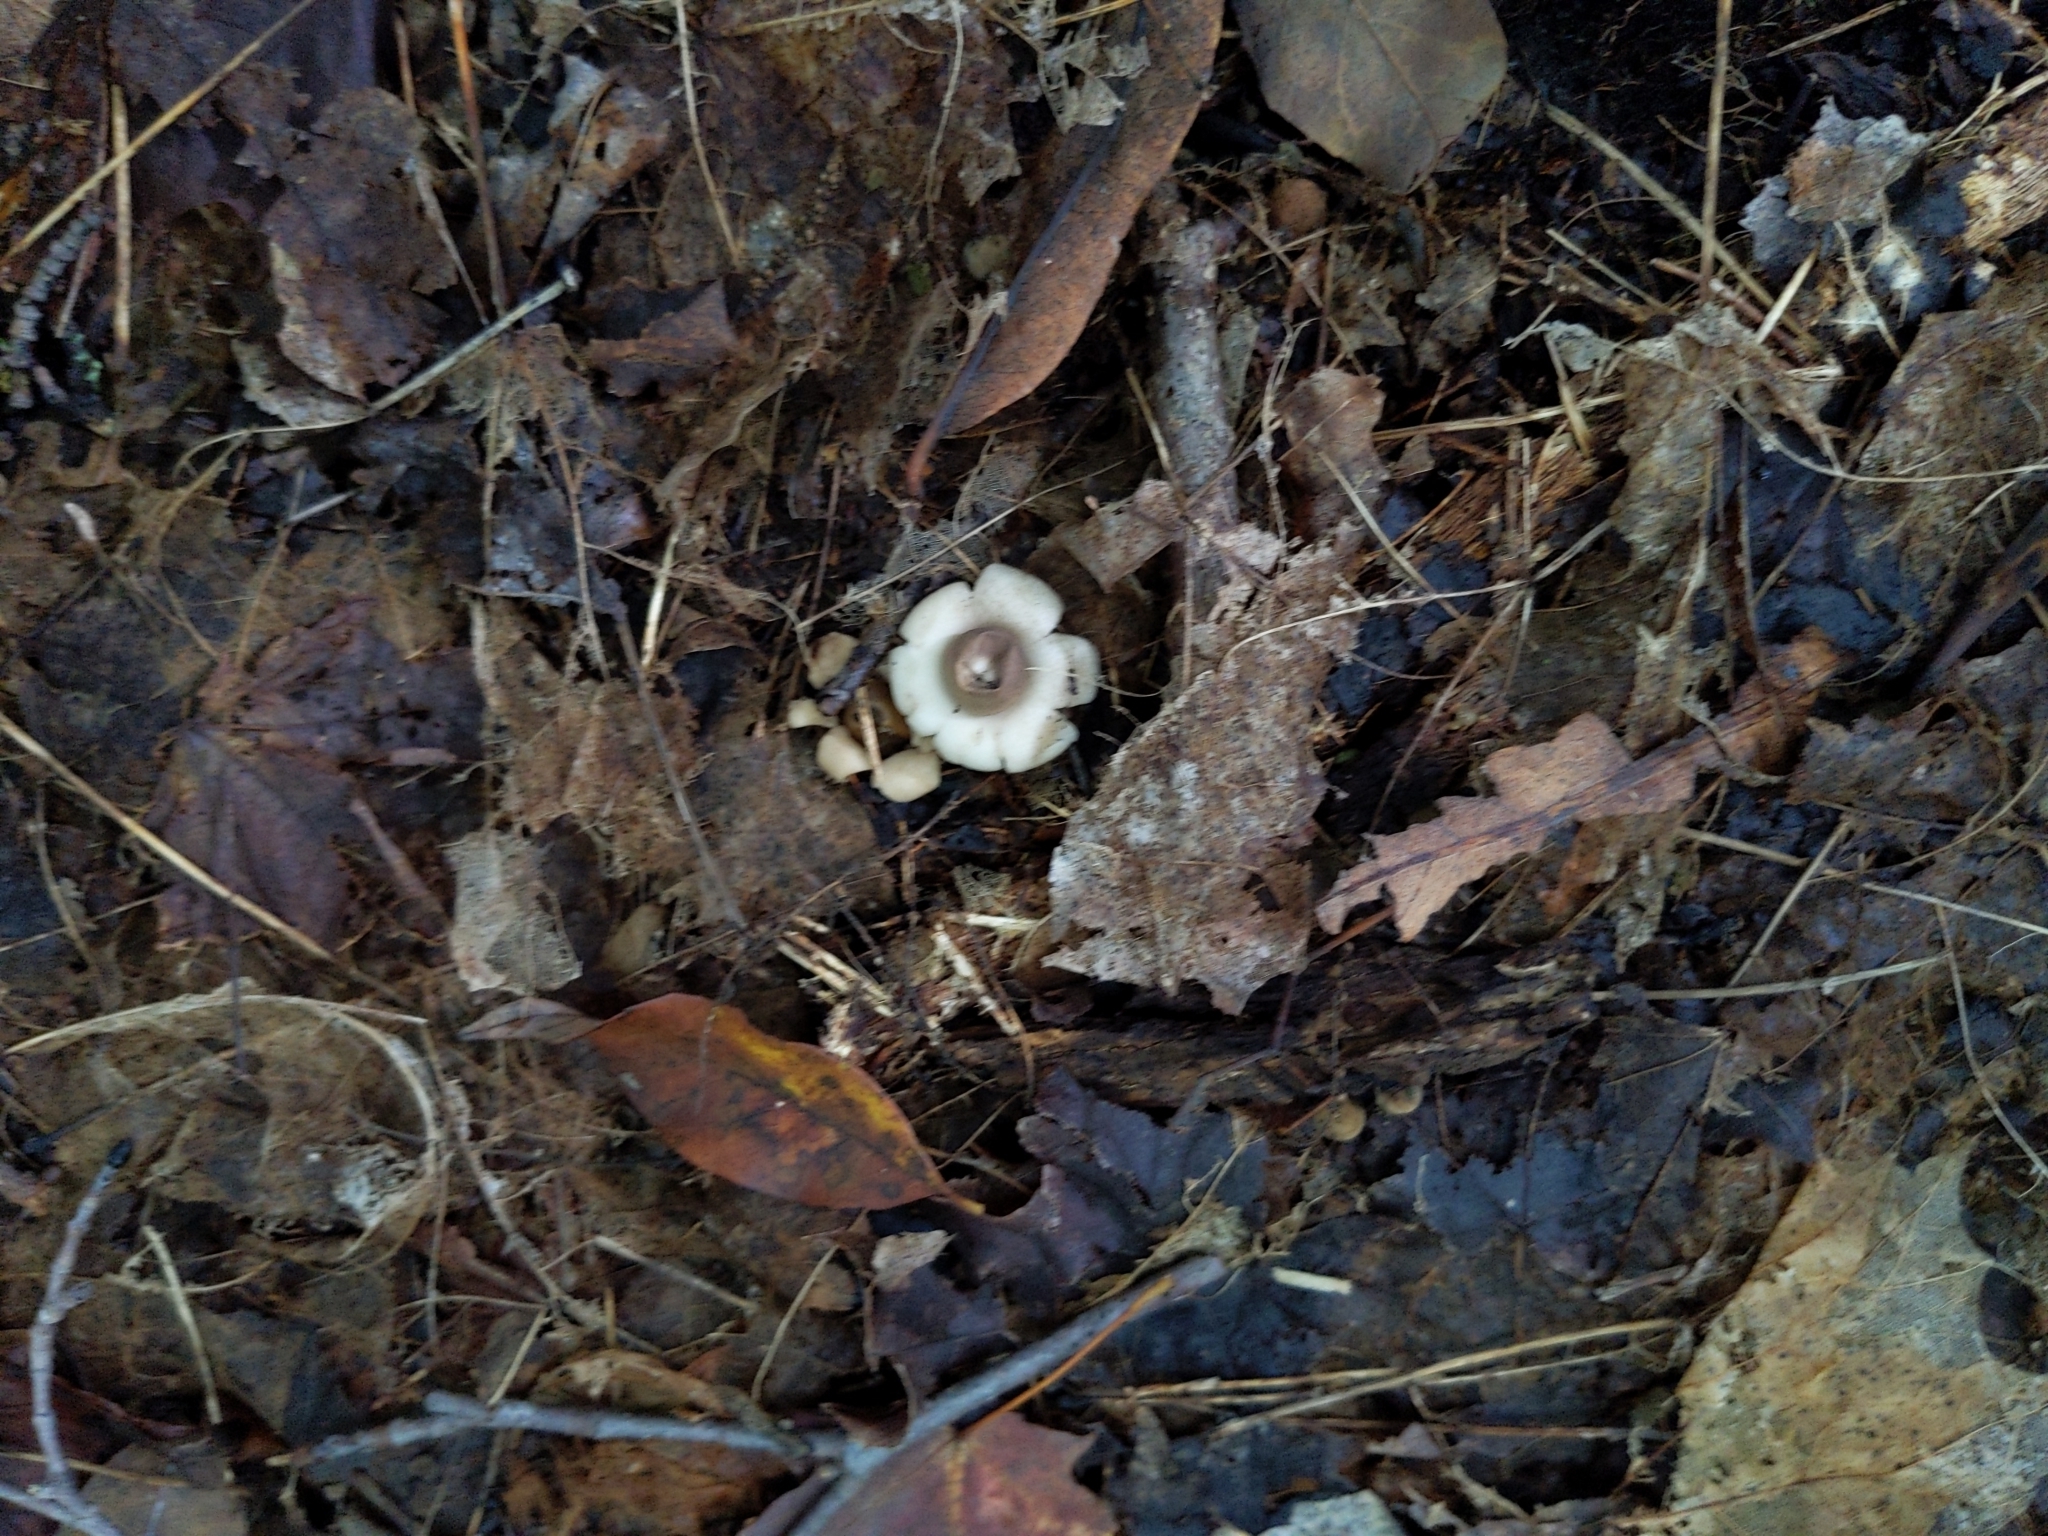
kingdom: Fungi
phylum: Basidiomycota
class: Agaricomycetes
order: Geastrales
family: Geastraceae
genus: Geastrum
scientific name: Geastrum saccatum
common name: Rounded earthstar
